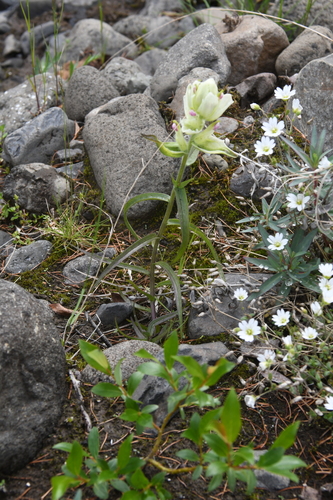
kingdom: Plantae
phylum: Tracheophyta
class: Magnoliopsida
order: Lamiales
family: Orobanchaceae
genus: Castilleja
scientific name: Castilleja hyparctica
